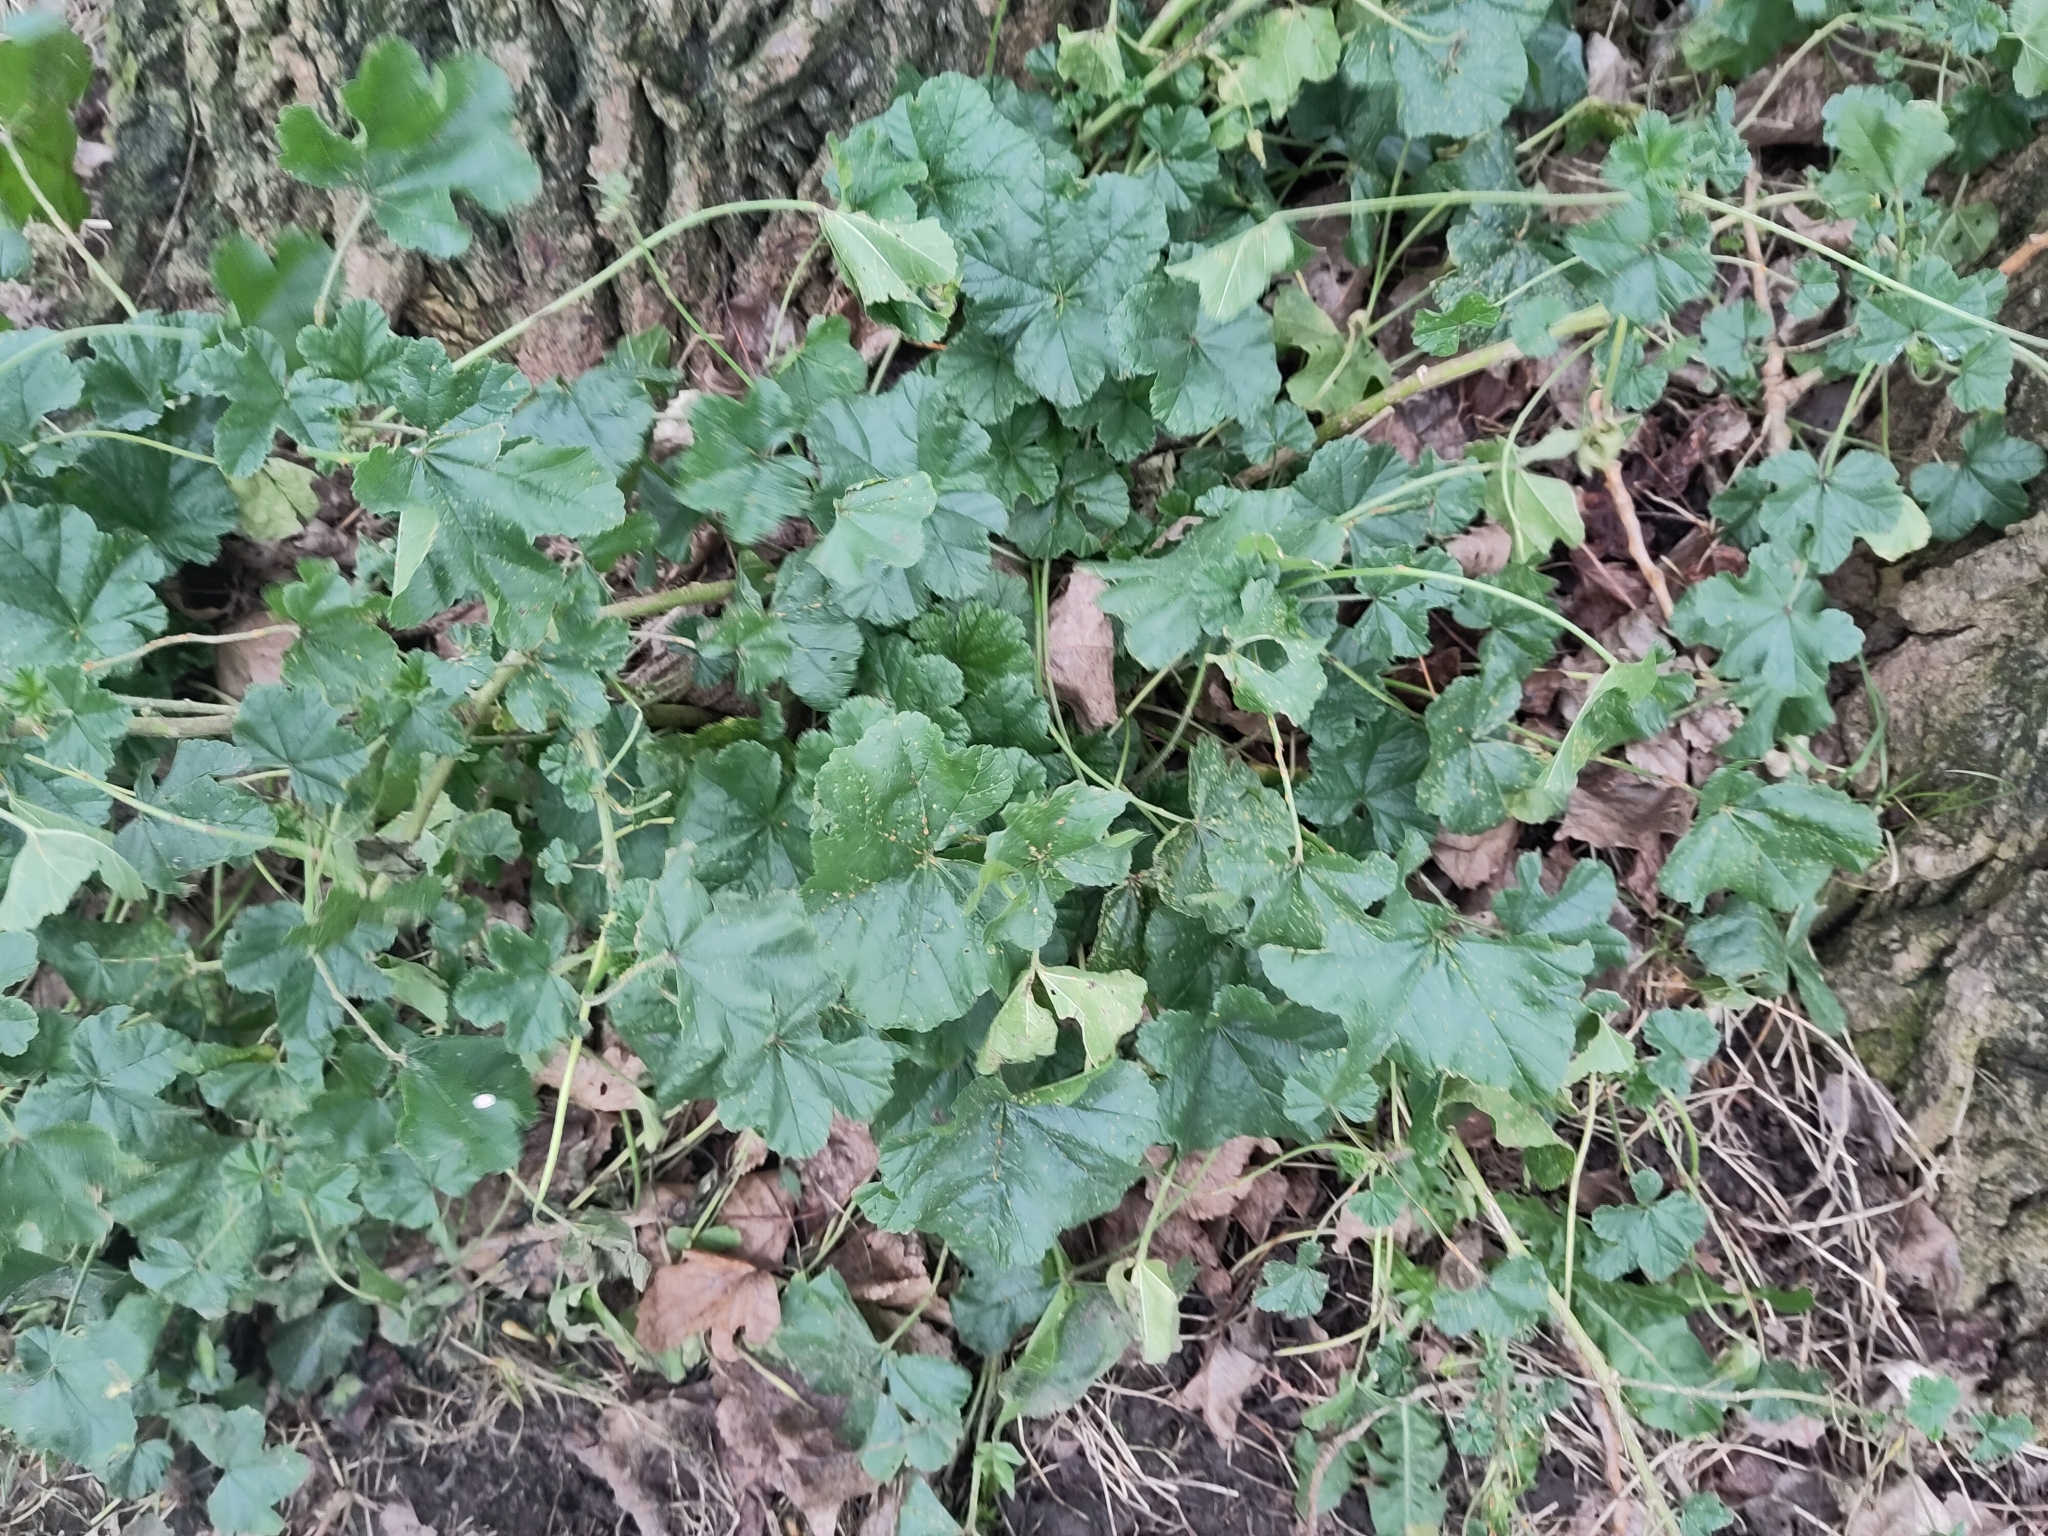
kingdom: Plantae
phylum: Tracheophyta
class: Magnoliopsida
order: Malvales
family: Malvaceae
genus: Malva
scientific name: Malva sylvestris
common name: Common mallow
